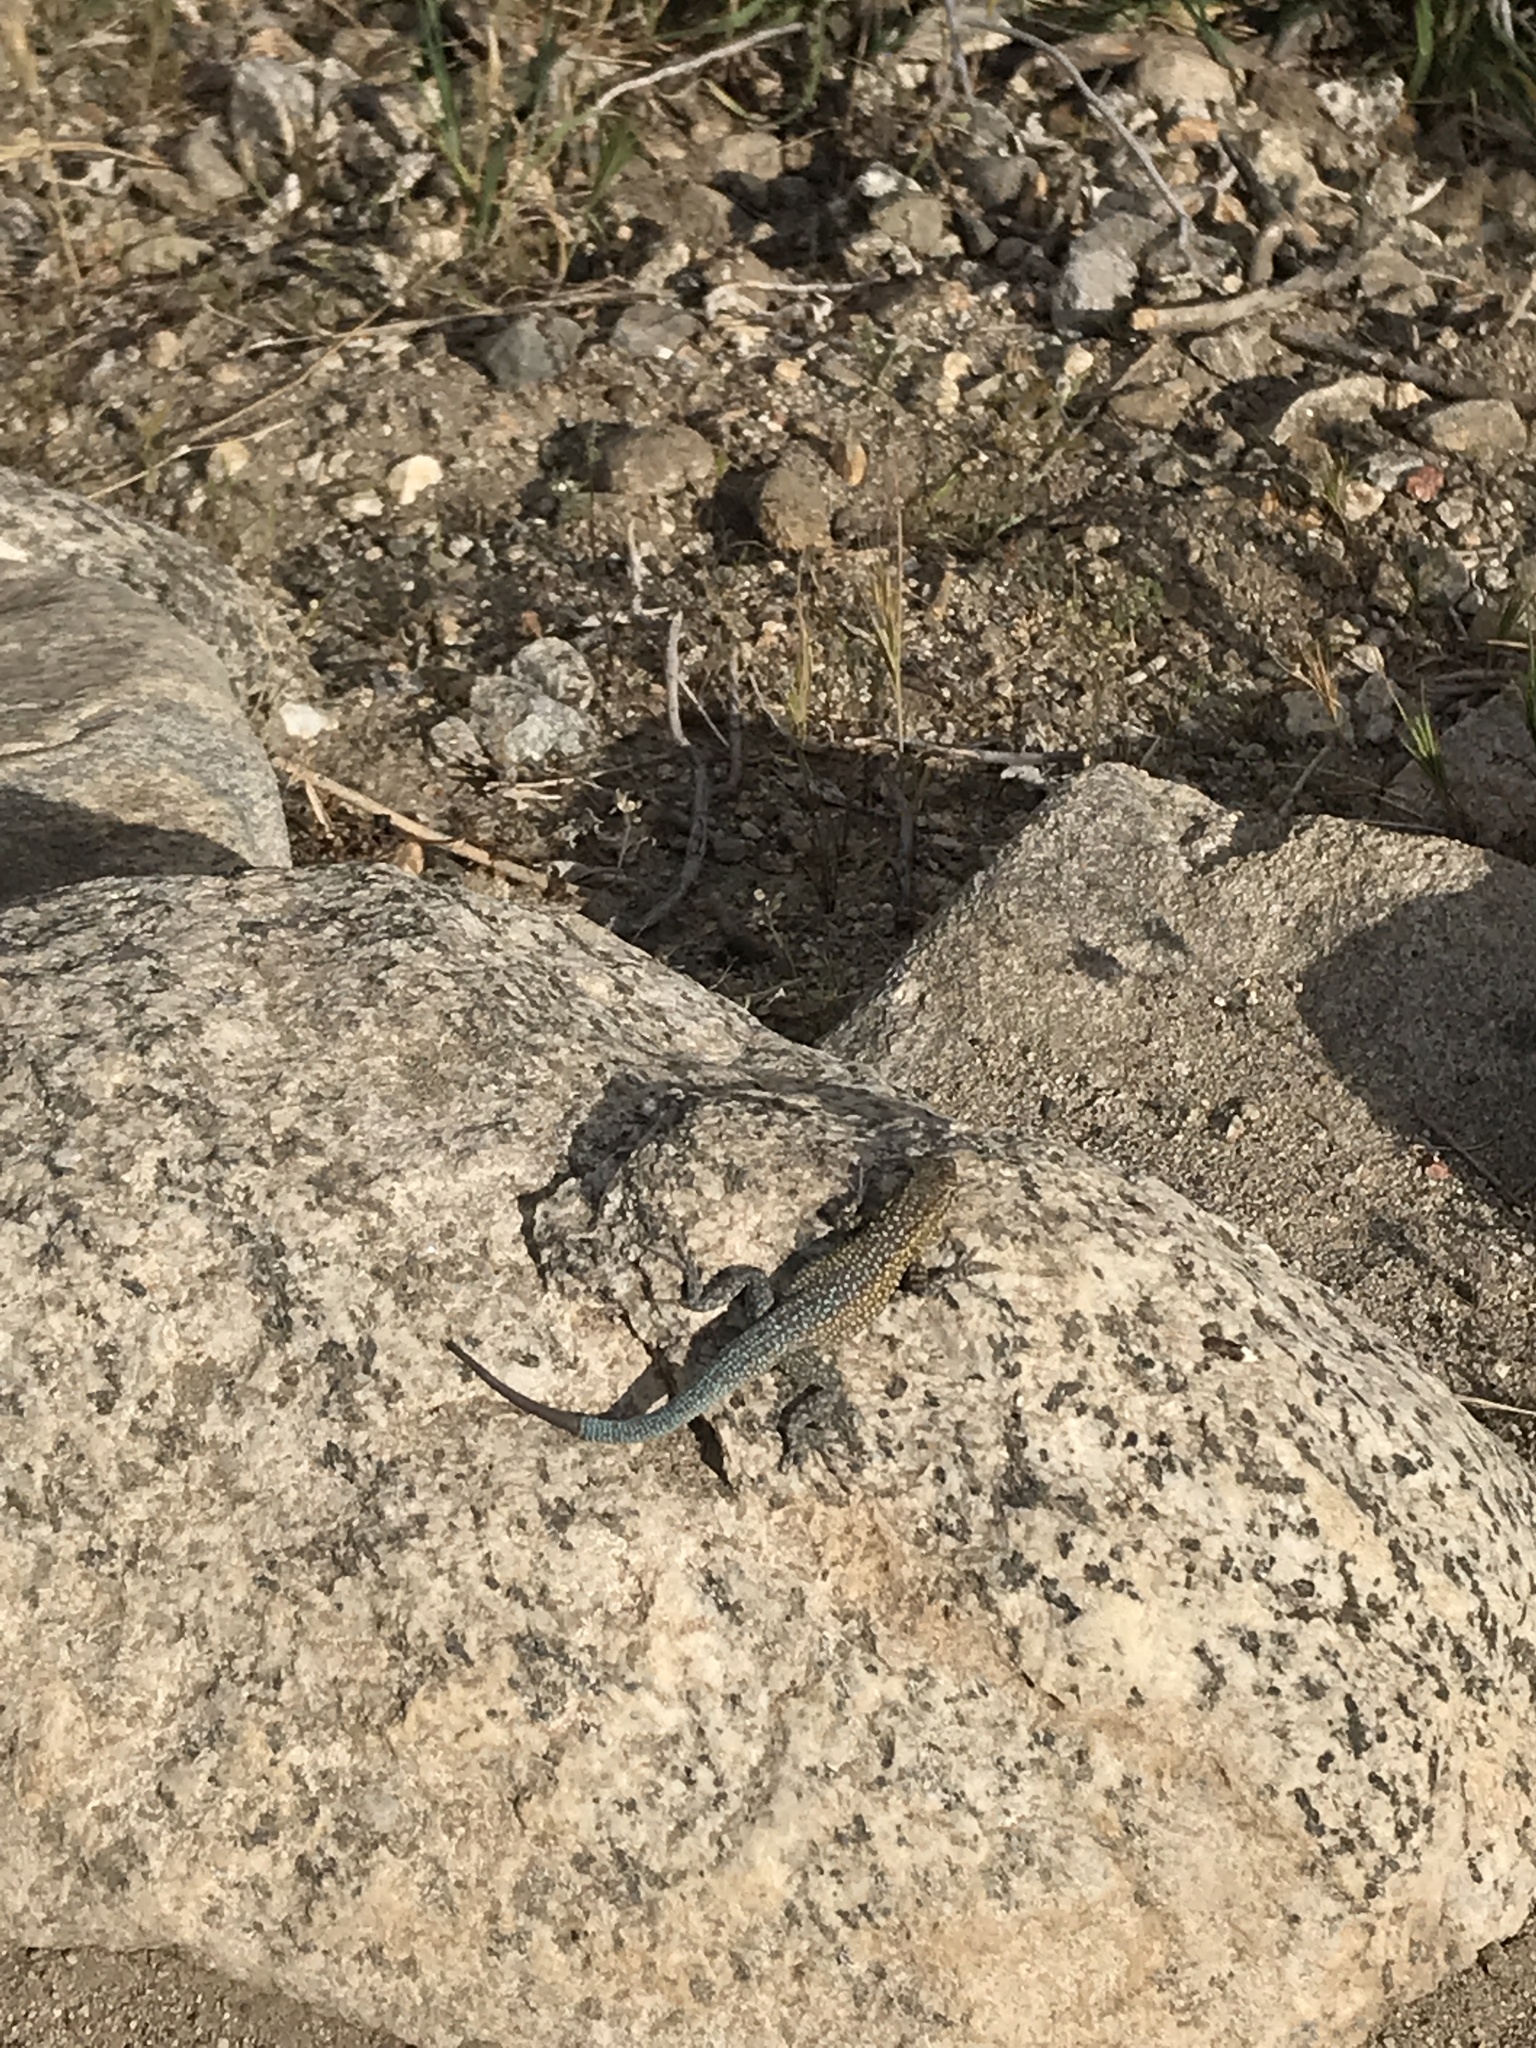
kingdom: Animalia
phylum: Chordata
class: Squamata
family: Phrynosomatidae
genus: Uta
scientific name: Uta stansburiana
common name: Side-blotched lizard
